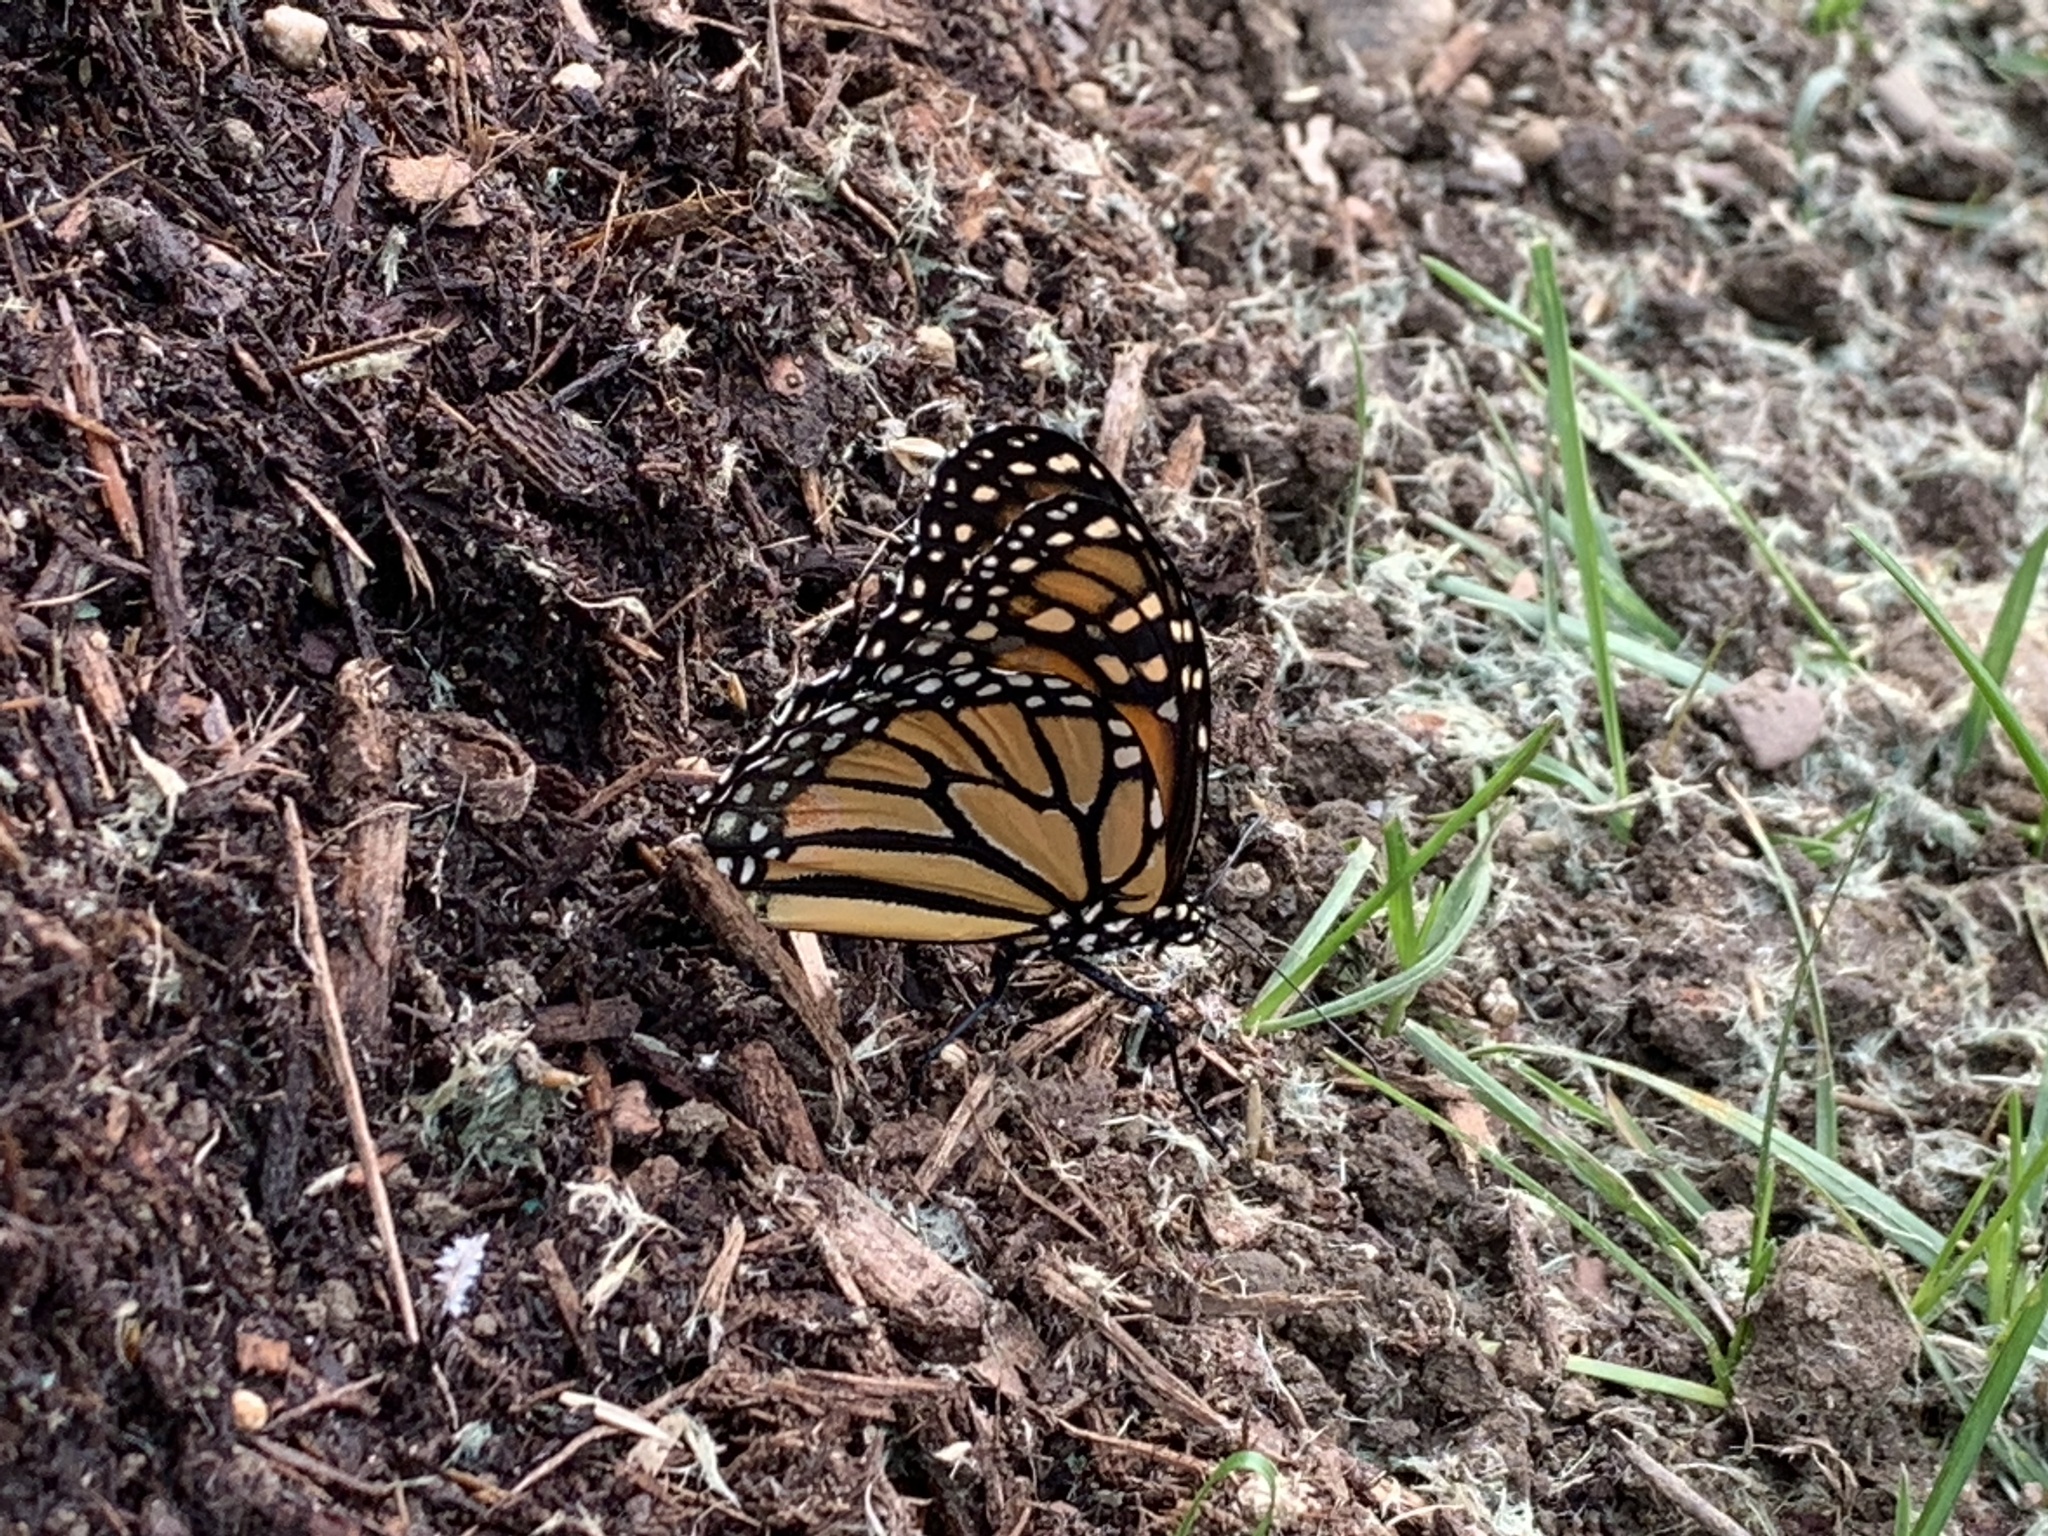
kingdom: Animalia
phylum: Arthropoda
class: Insecta
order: Lepidoptera
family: Nymphalidae
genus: Danaus
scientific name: Danaus plexippus
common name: Monarch
